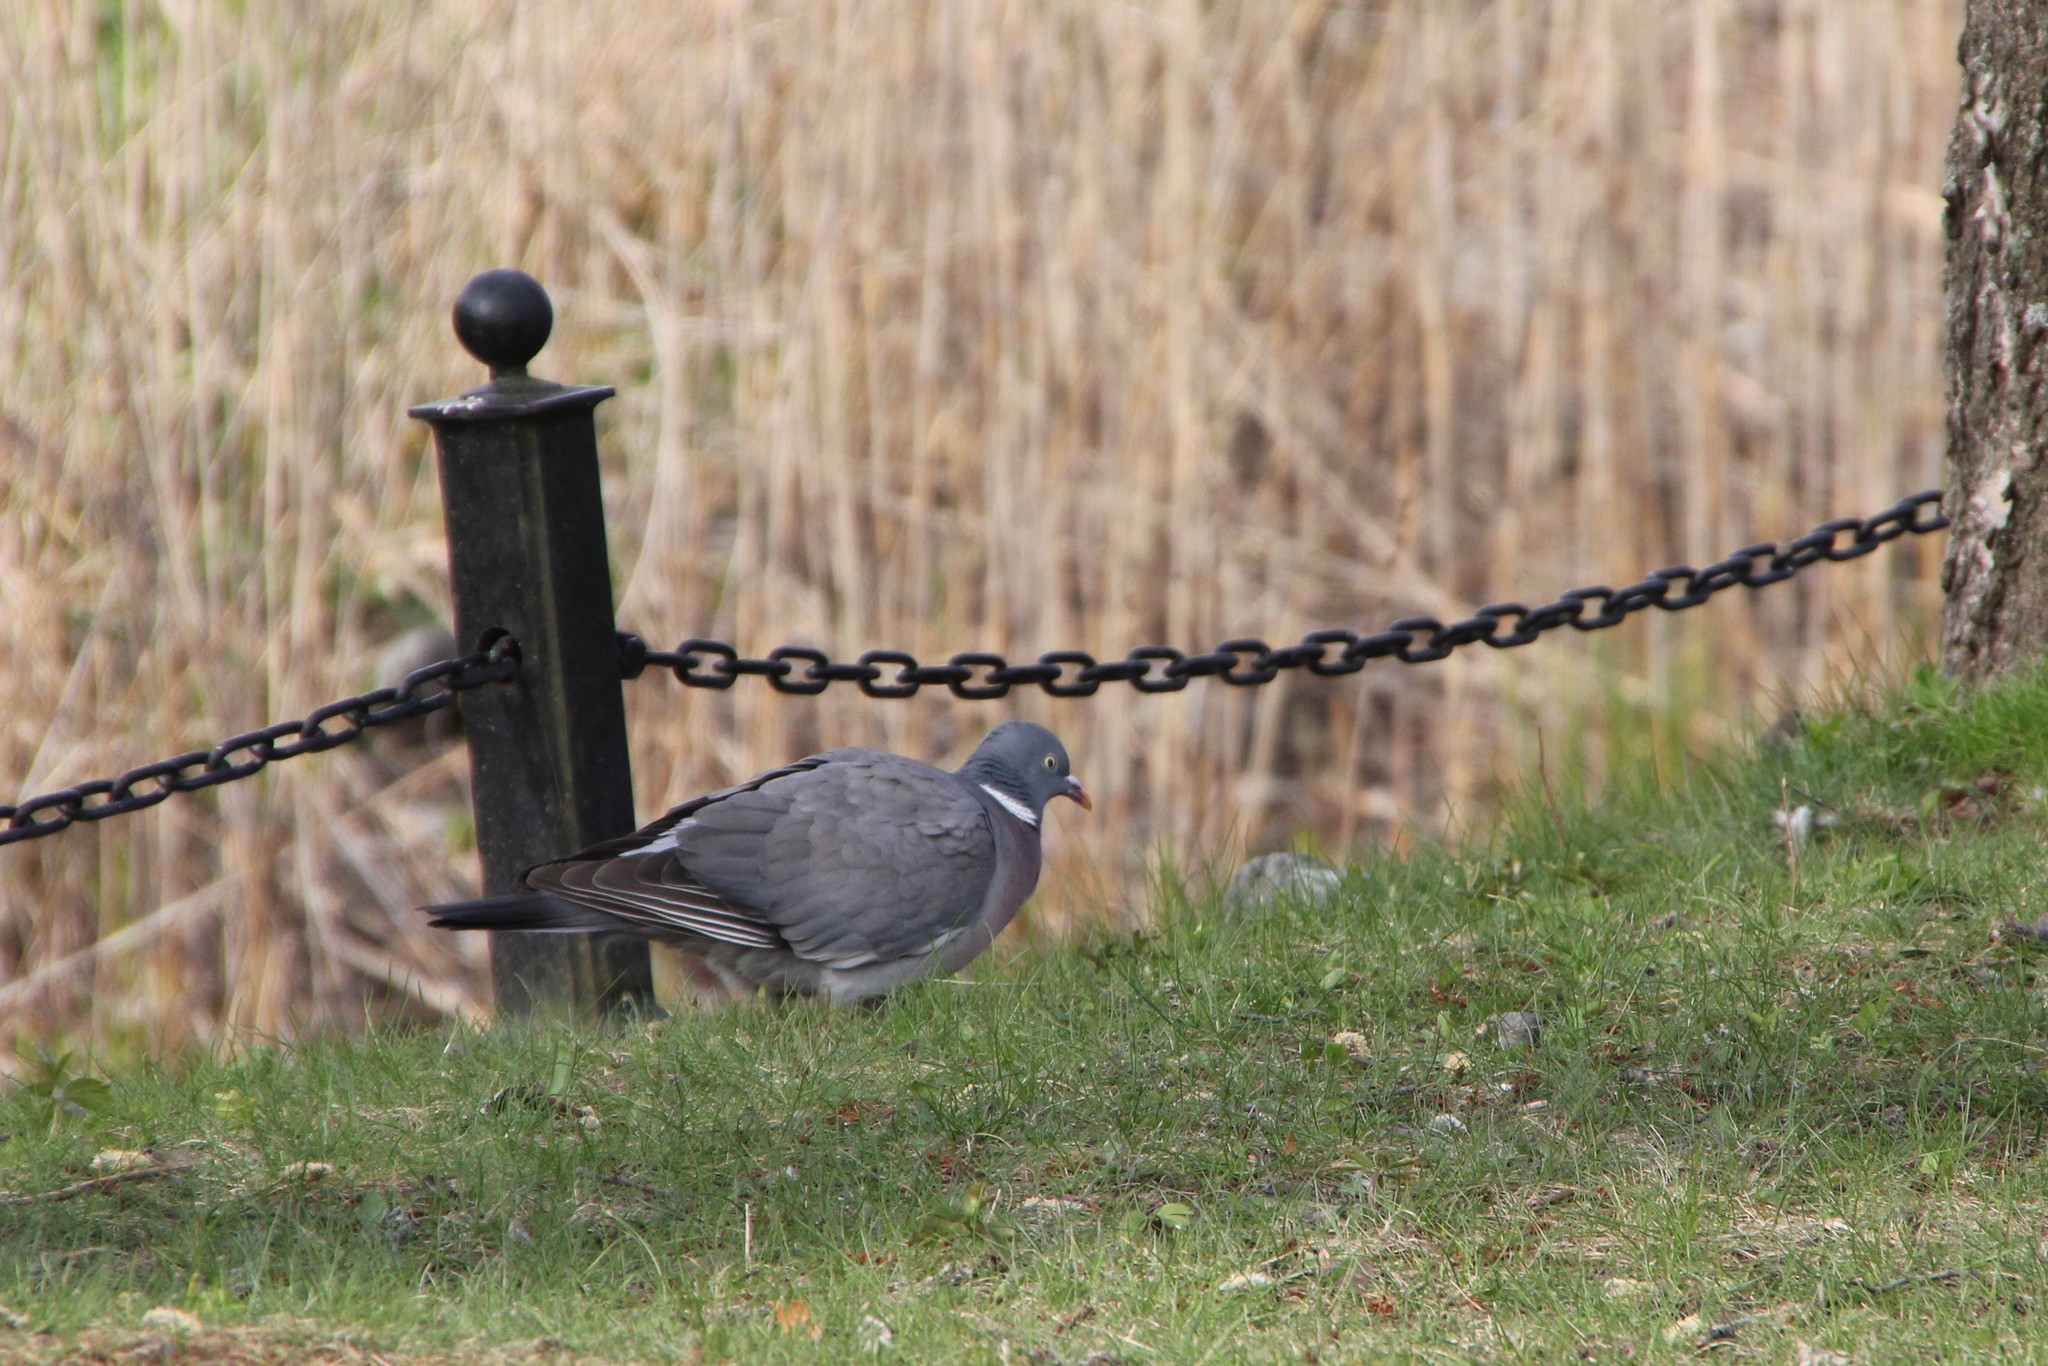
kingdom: Animalia
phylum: Chordata
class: Aves
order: Columbiformes
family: Columbidae
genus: Columba
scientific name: Columba palumbus
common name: Common wood pigeon
